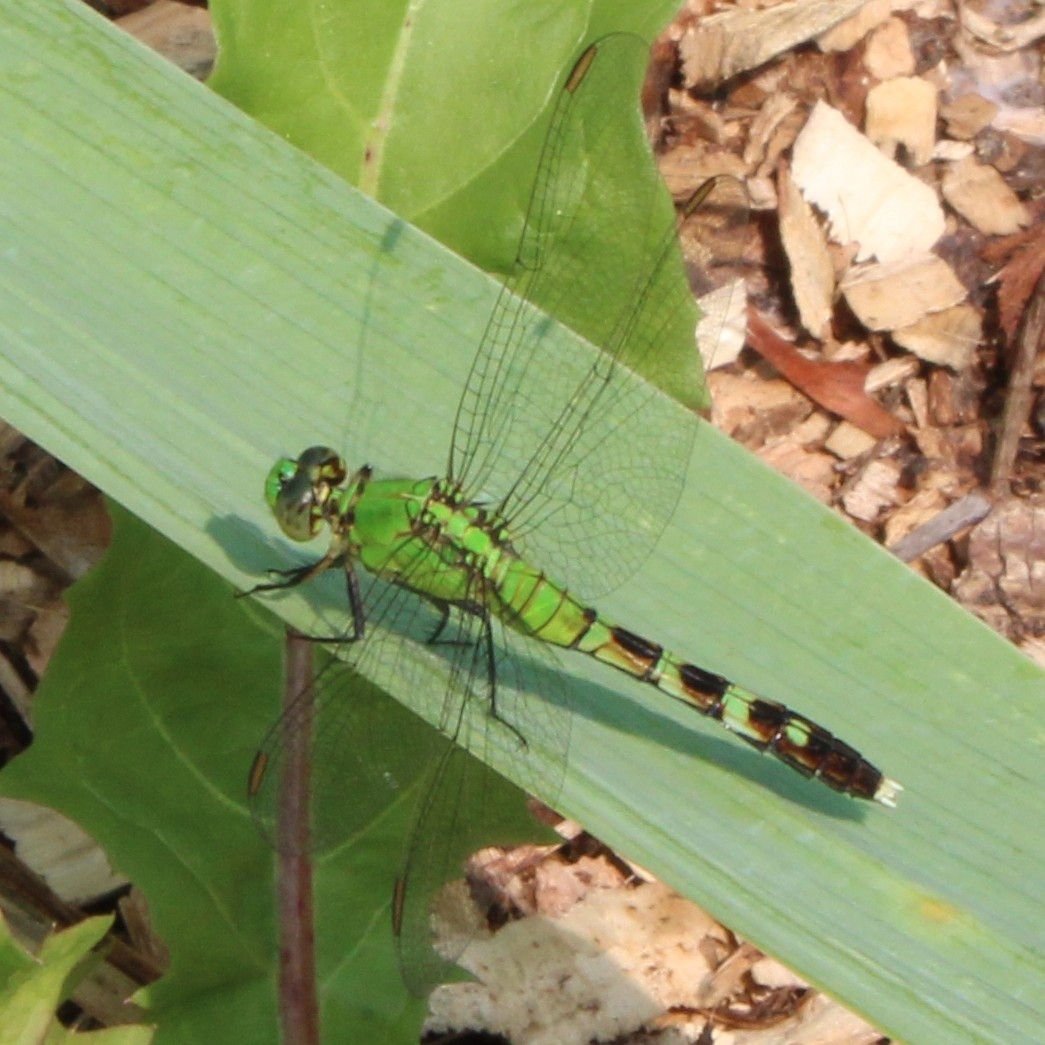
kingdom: Animalia
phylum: Arthropoda
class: Insecta
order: Odonata
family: Libellulidae
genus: Erythemis
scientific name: Erythemis simplicicollis
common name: Eastern pondhawk
